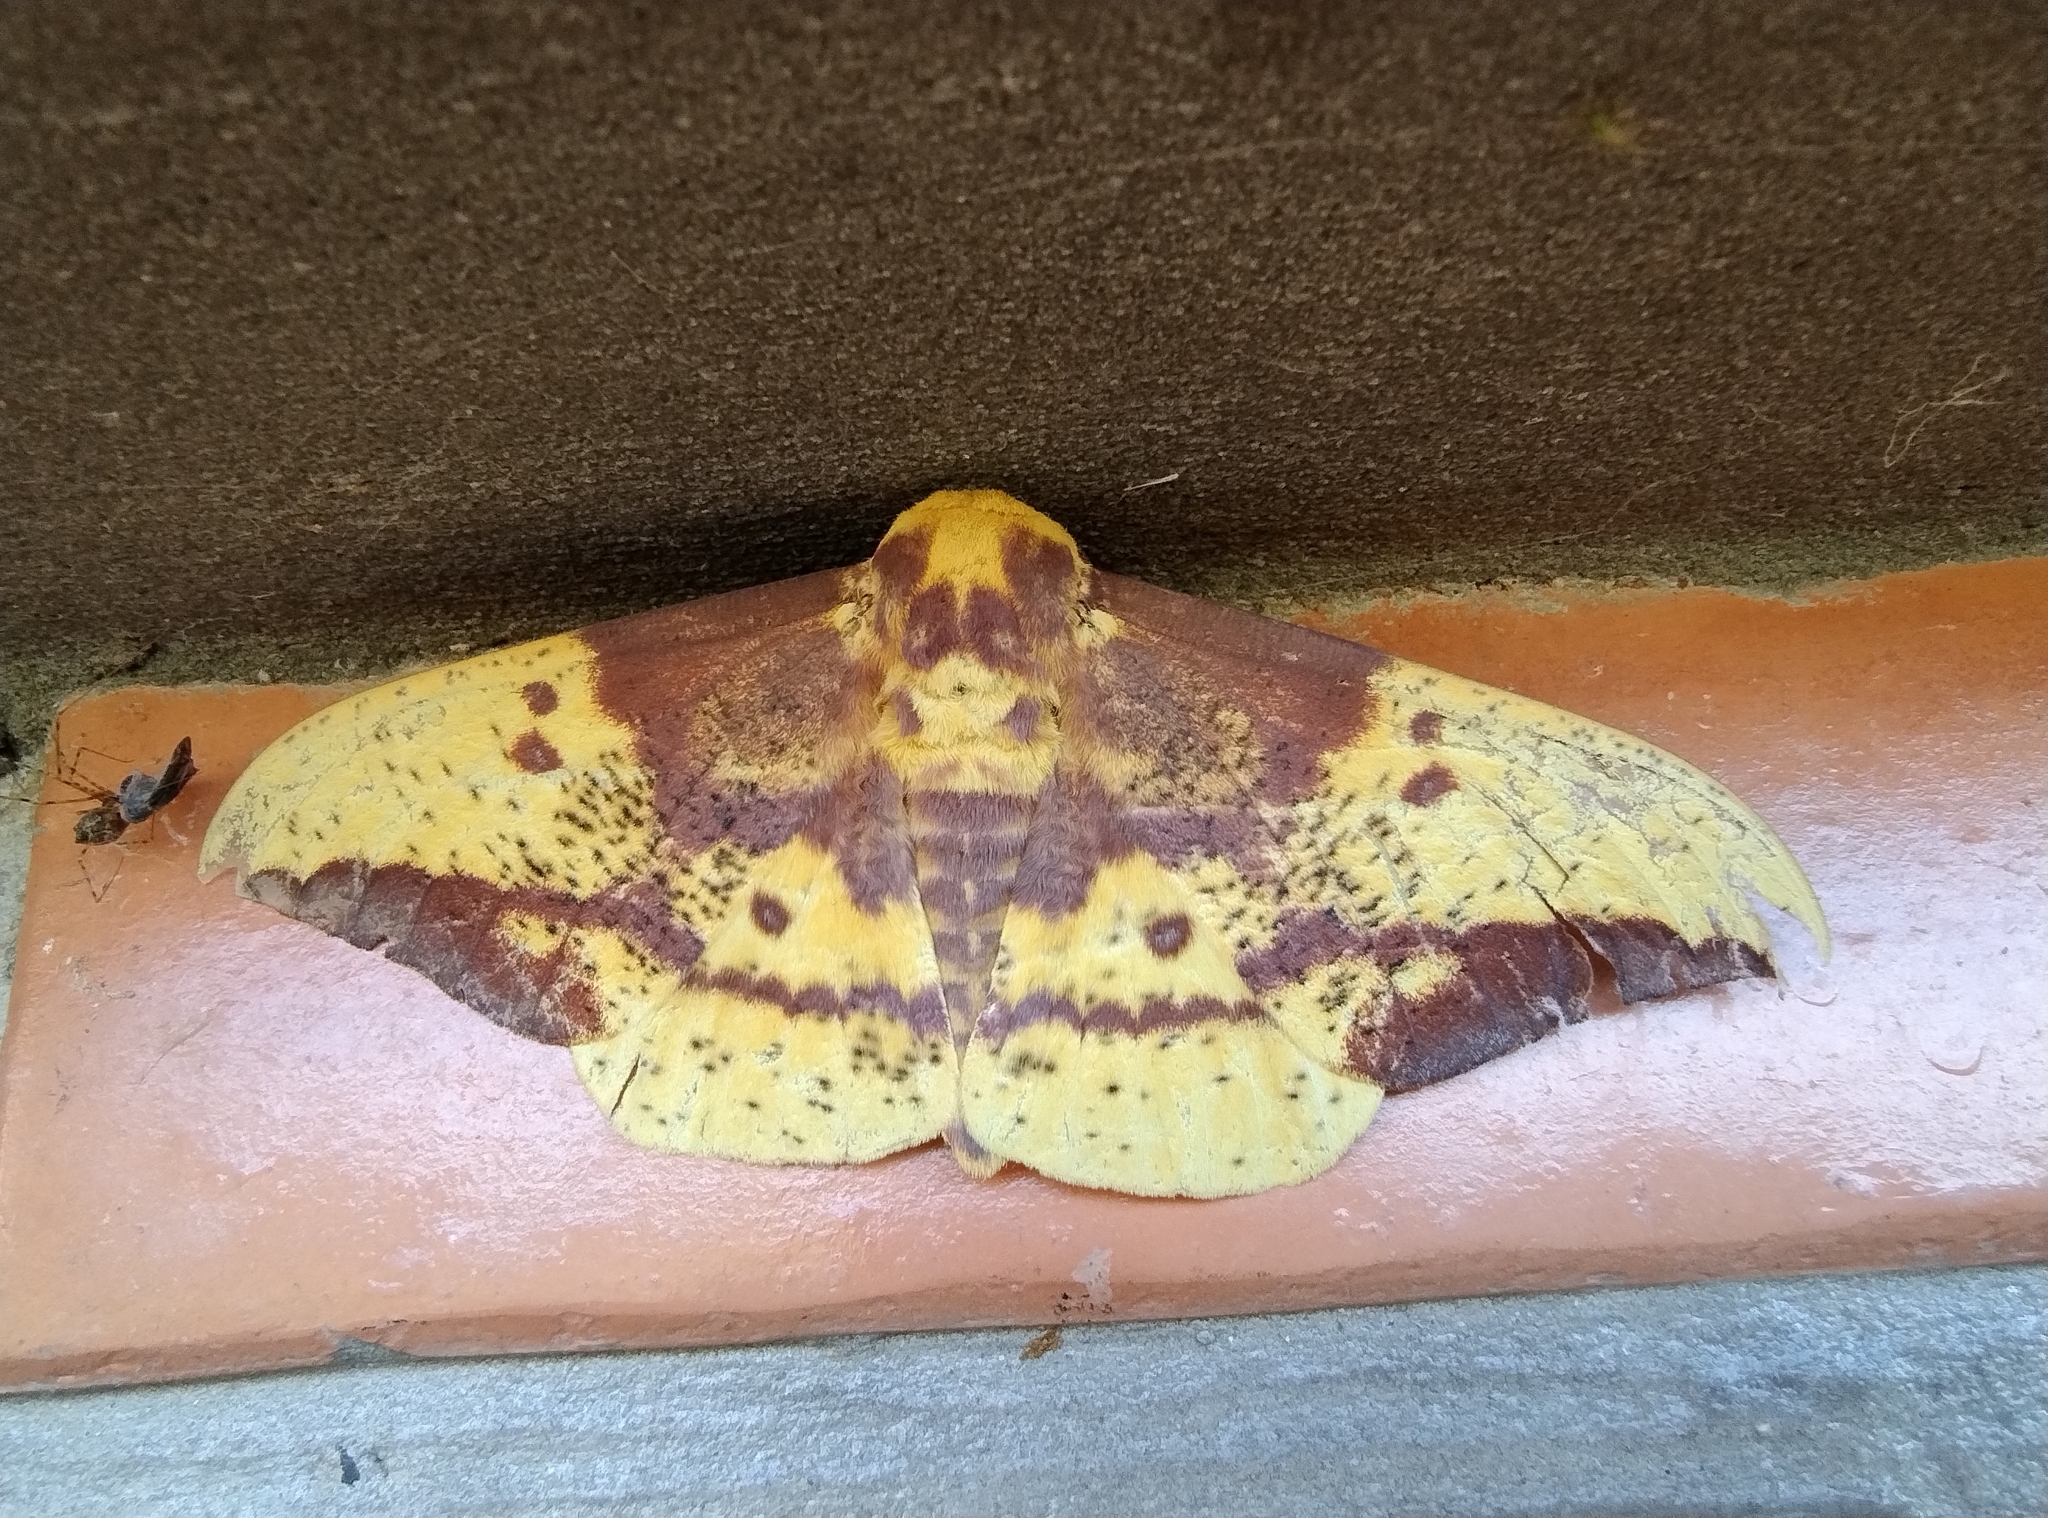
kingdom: Animalia
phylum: Arthropoda
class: Insecta
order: Lepidoptera
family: Saturniidae
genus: Eacles
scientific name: Eacles imperialis
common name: Imperial moth
